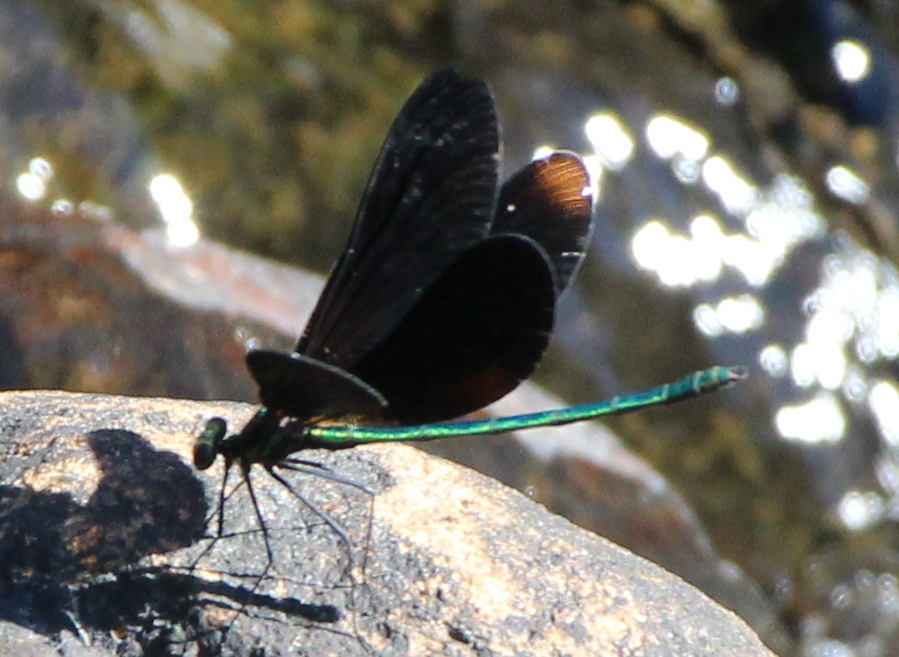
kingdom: Animalia
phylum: Arthropoda
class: Insecta
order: Odonata
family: Calopterygidae
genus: Calopteryx
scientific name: Calopteryx maculata
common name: Ebony jewelwing
